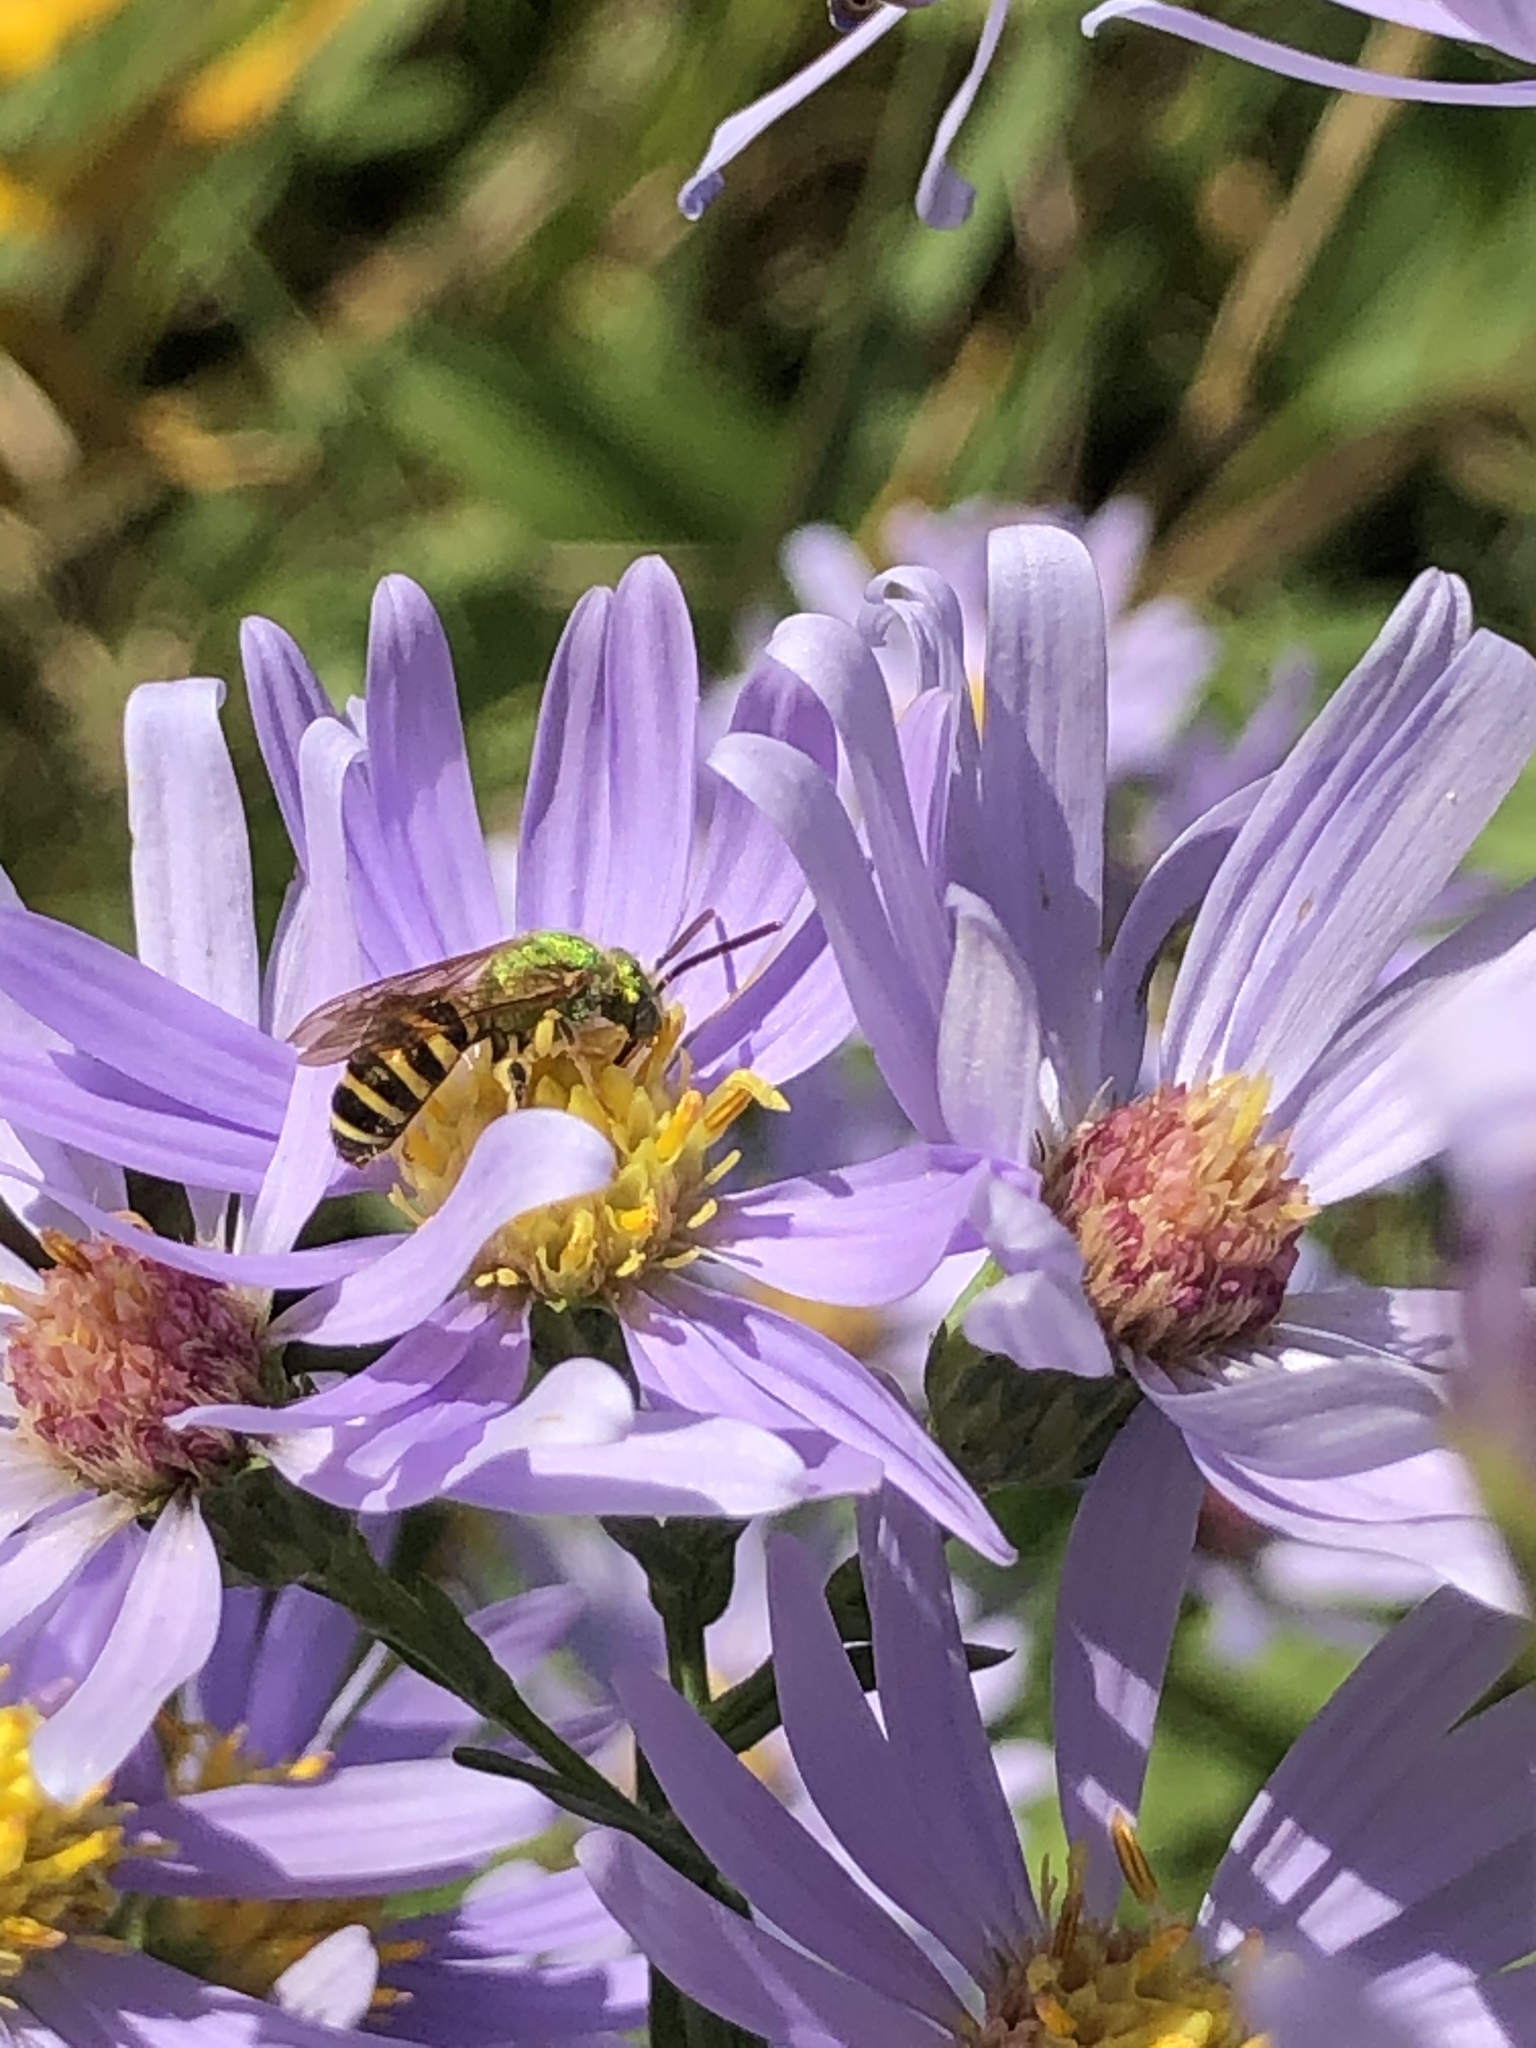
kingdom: Animalia
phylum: Arthropoda
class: Insecta
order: Hymenoptera
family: Halictidae
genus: Agapostemon
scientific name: Agapostemon virescens
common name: Bicolored striped sweat bee
